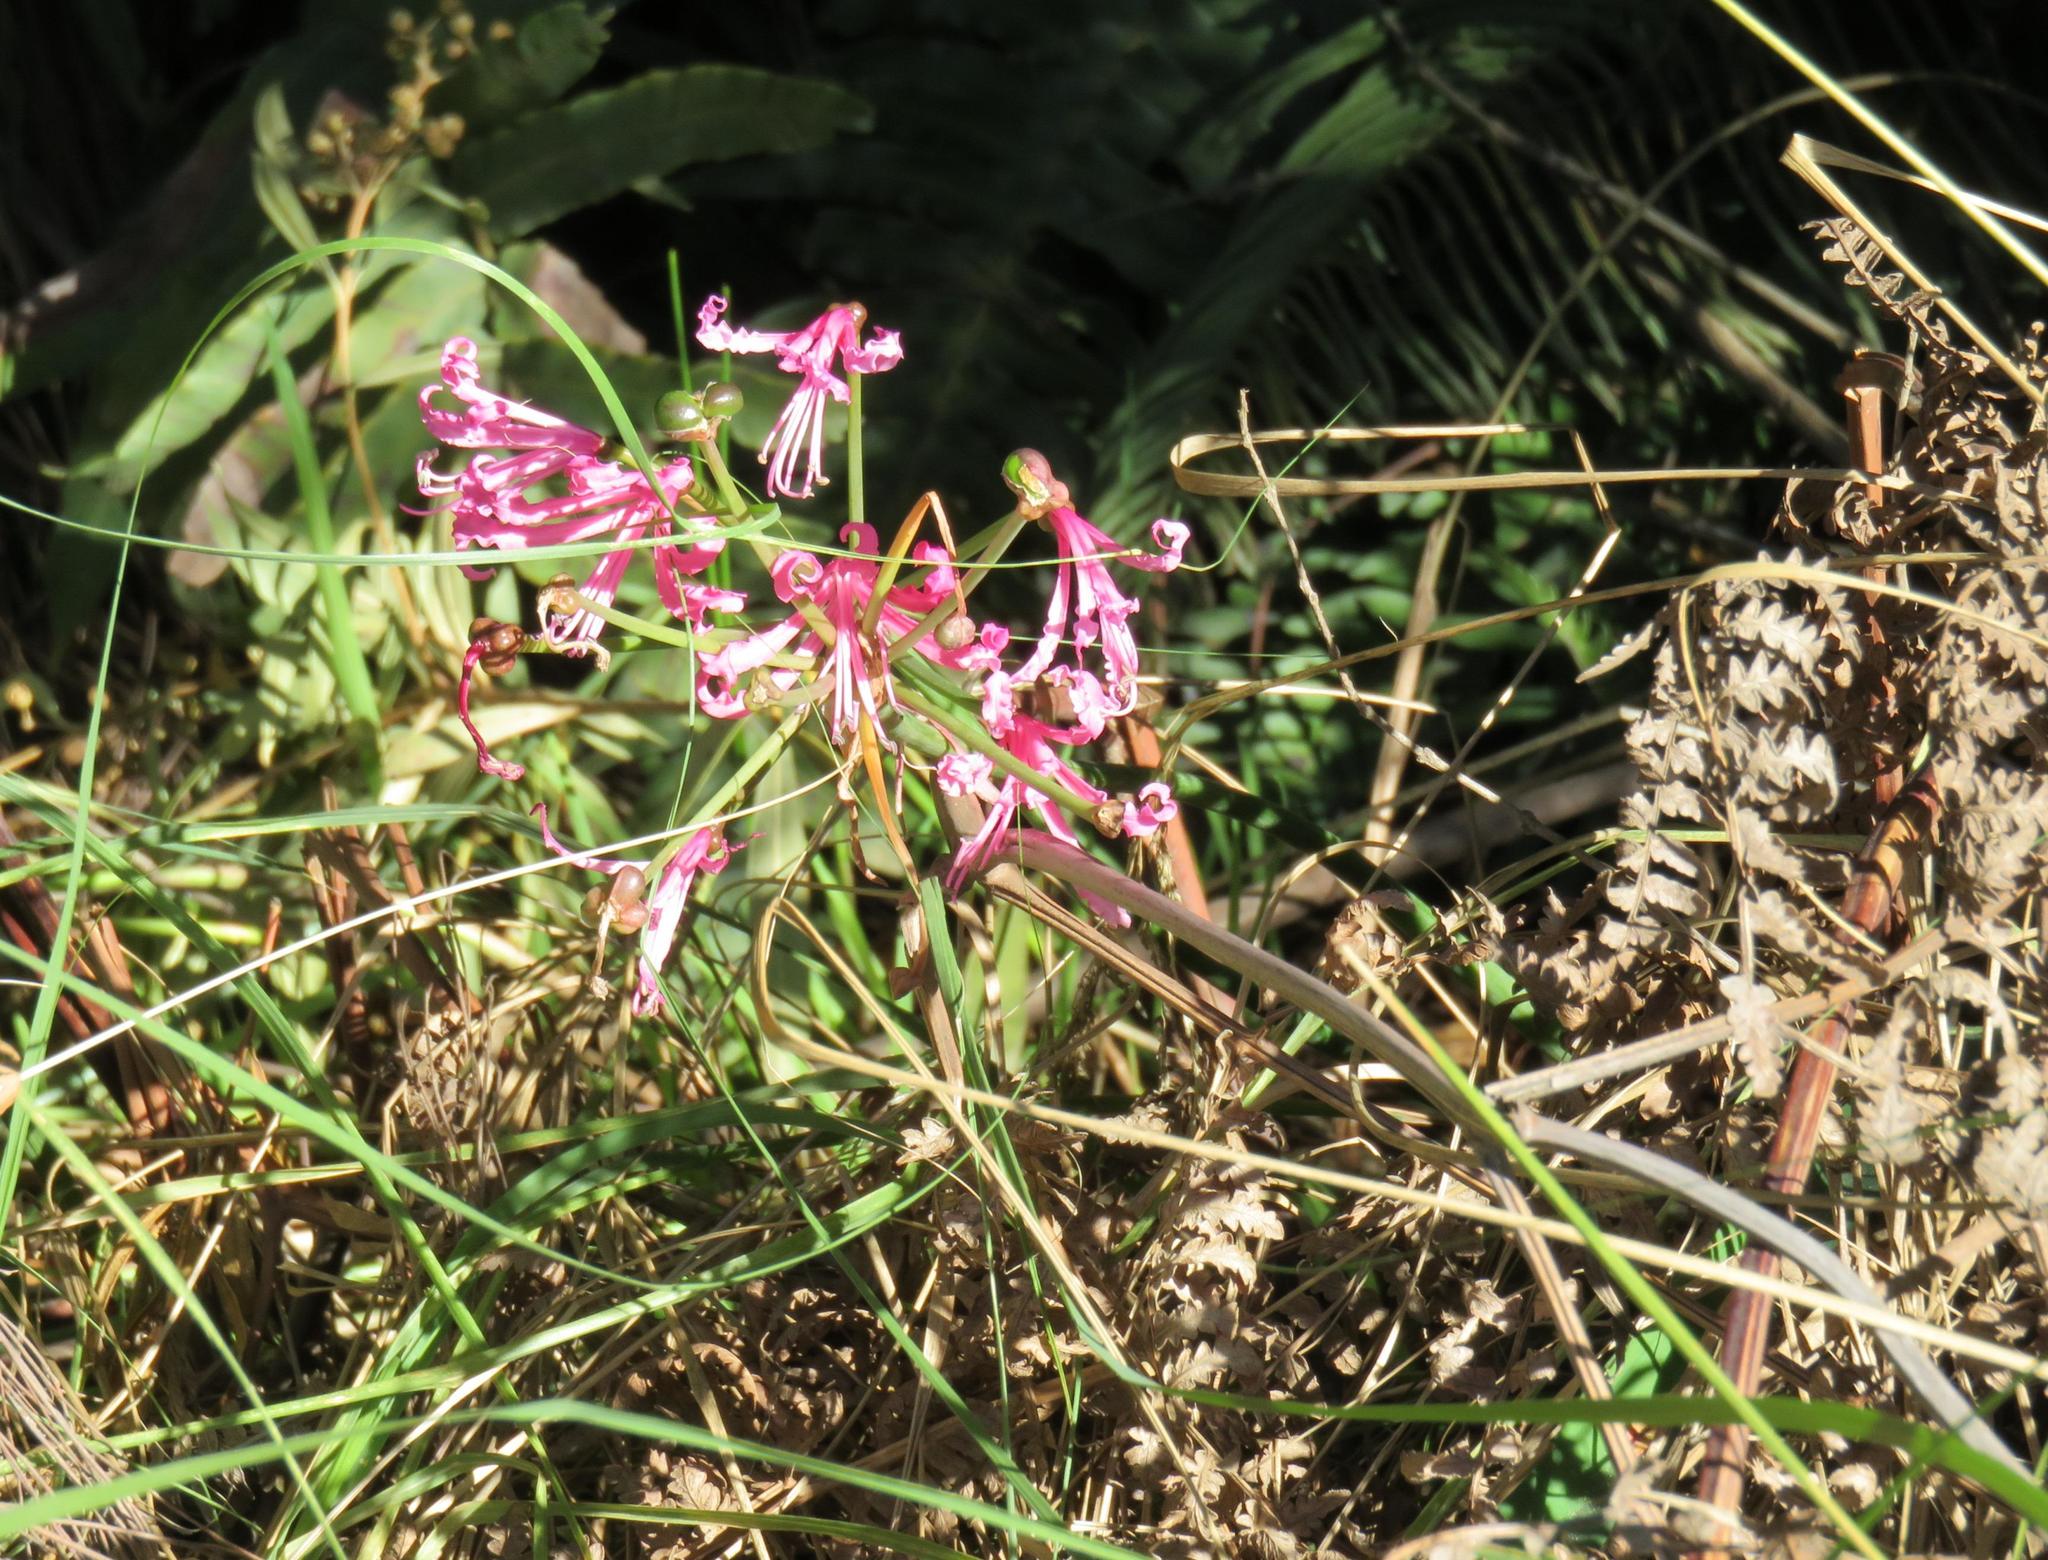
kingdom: Plantae
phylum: Tracheophyta
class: Liliopsida
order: Asparagales
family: Amaryllidaceae
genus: Nerine
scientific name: Nerine humilis
